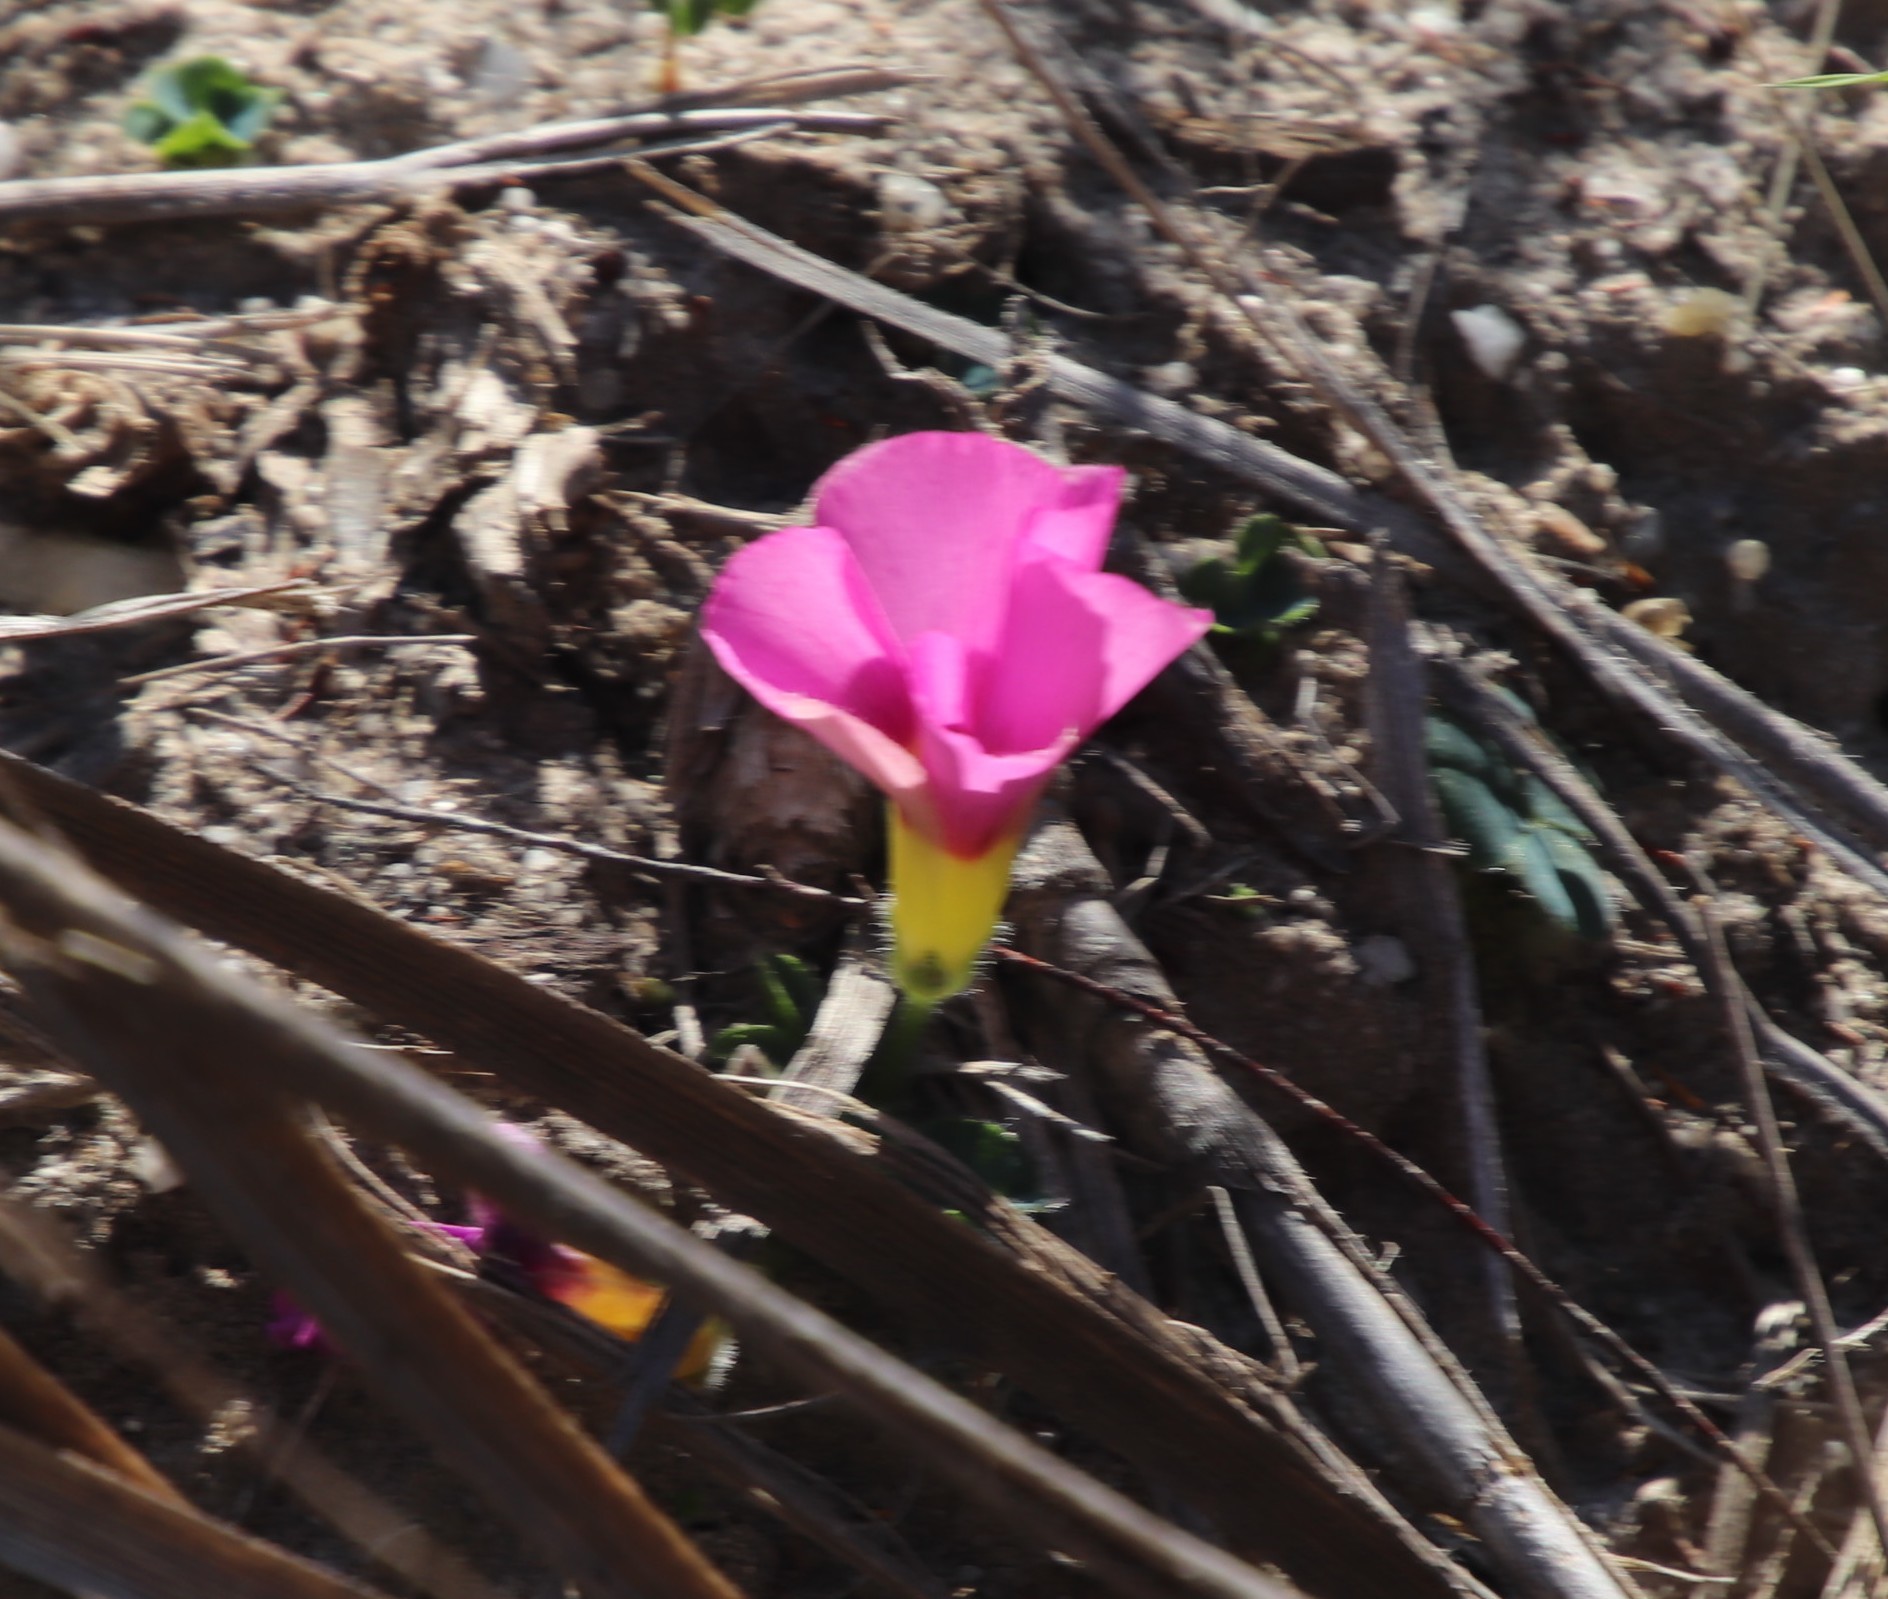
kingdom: Plantae
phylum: Tracheophyta
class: Magnoliopsida
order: Oxalidales
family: Oxalidaceae
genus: Oxalis
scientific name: Oxalis purpurea
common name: Purple woodsorrel
